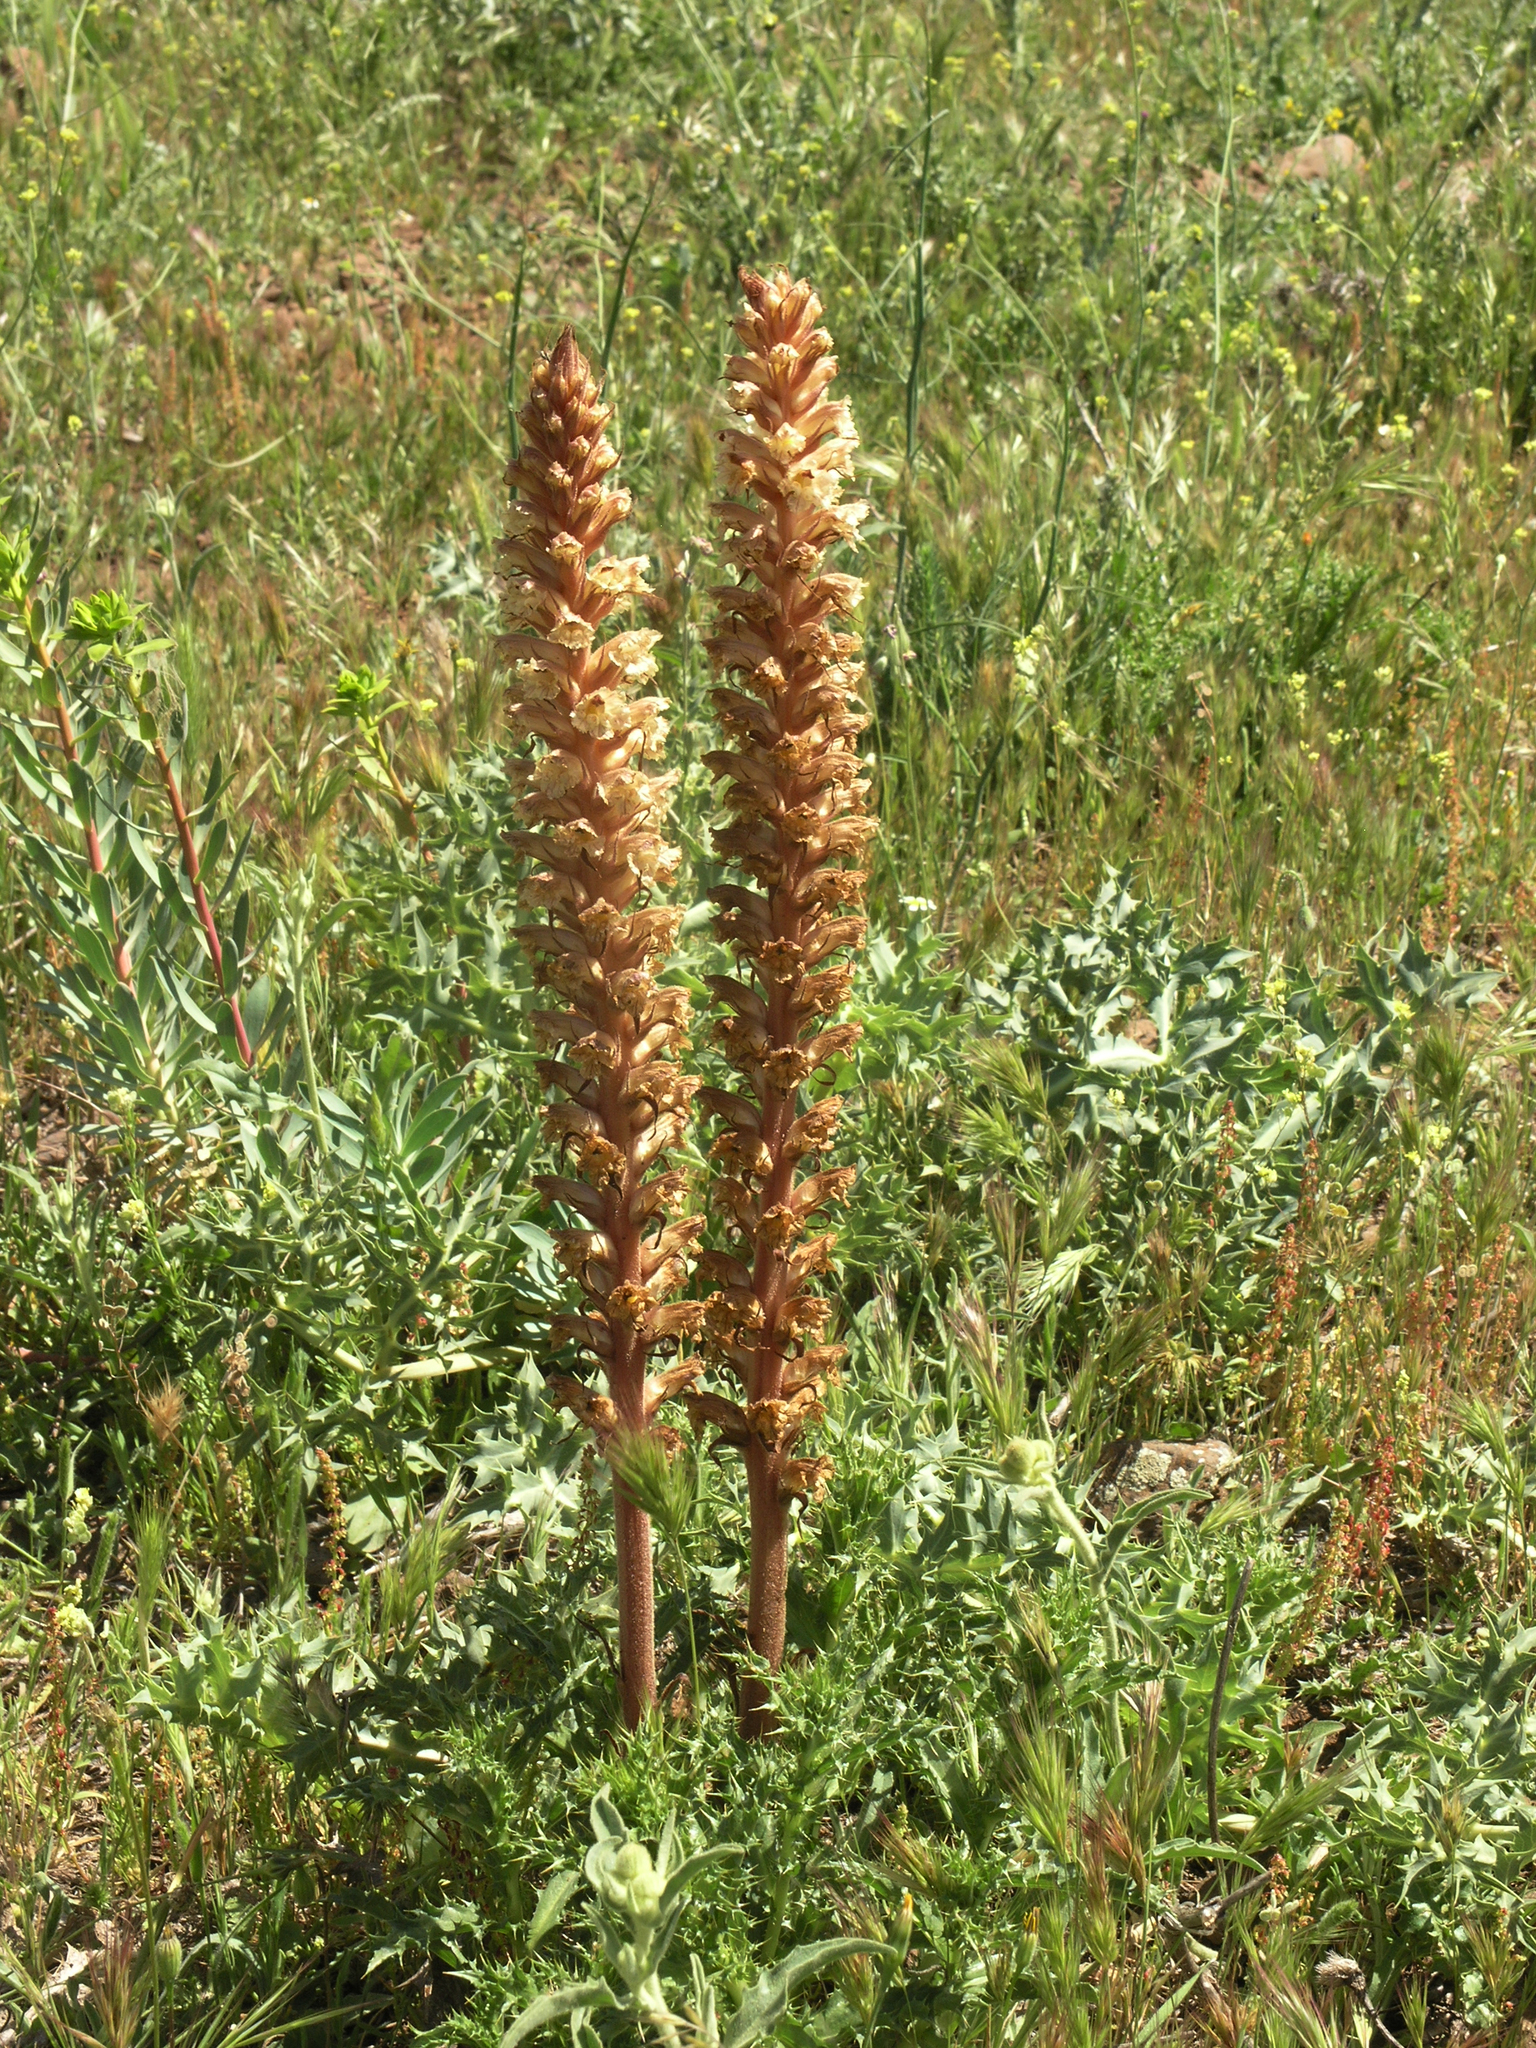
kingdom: Plantae
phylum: Tracheophyta
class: Magnoliopsida
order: Lamiales
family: Orobanchaceae
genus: Orobanche
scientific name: Orobanche amethystea
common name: Amethyst broomrape
